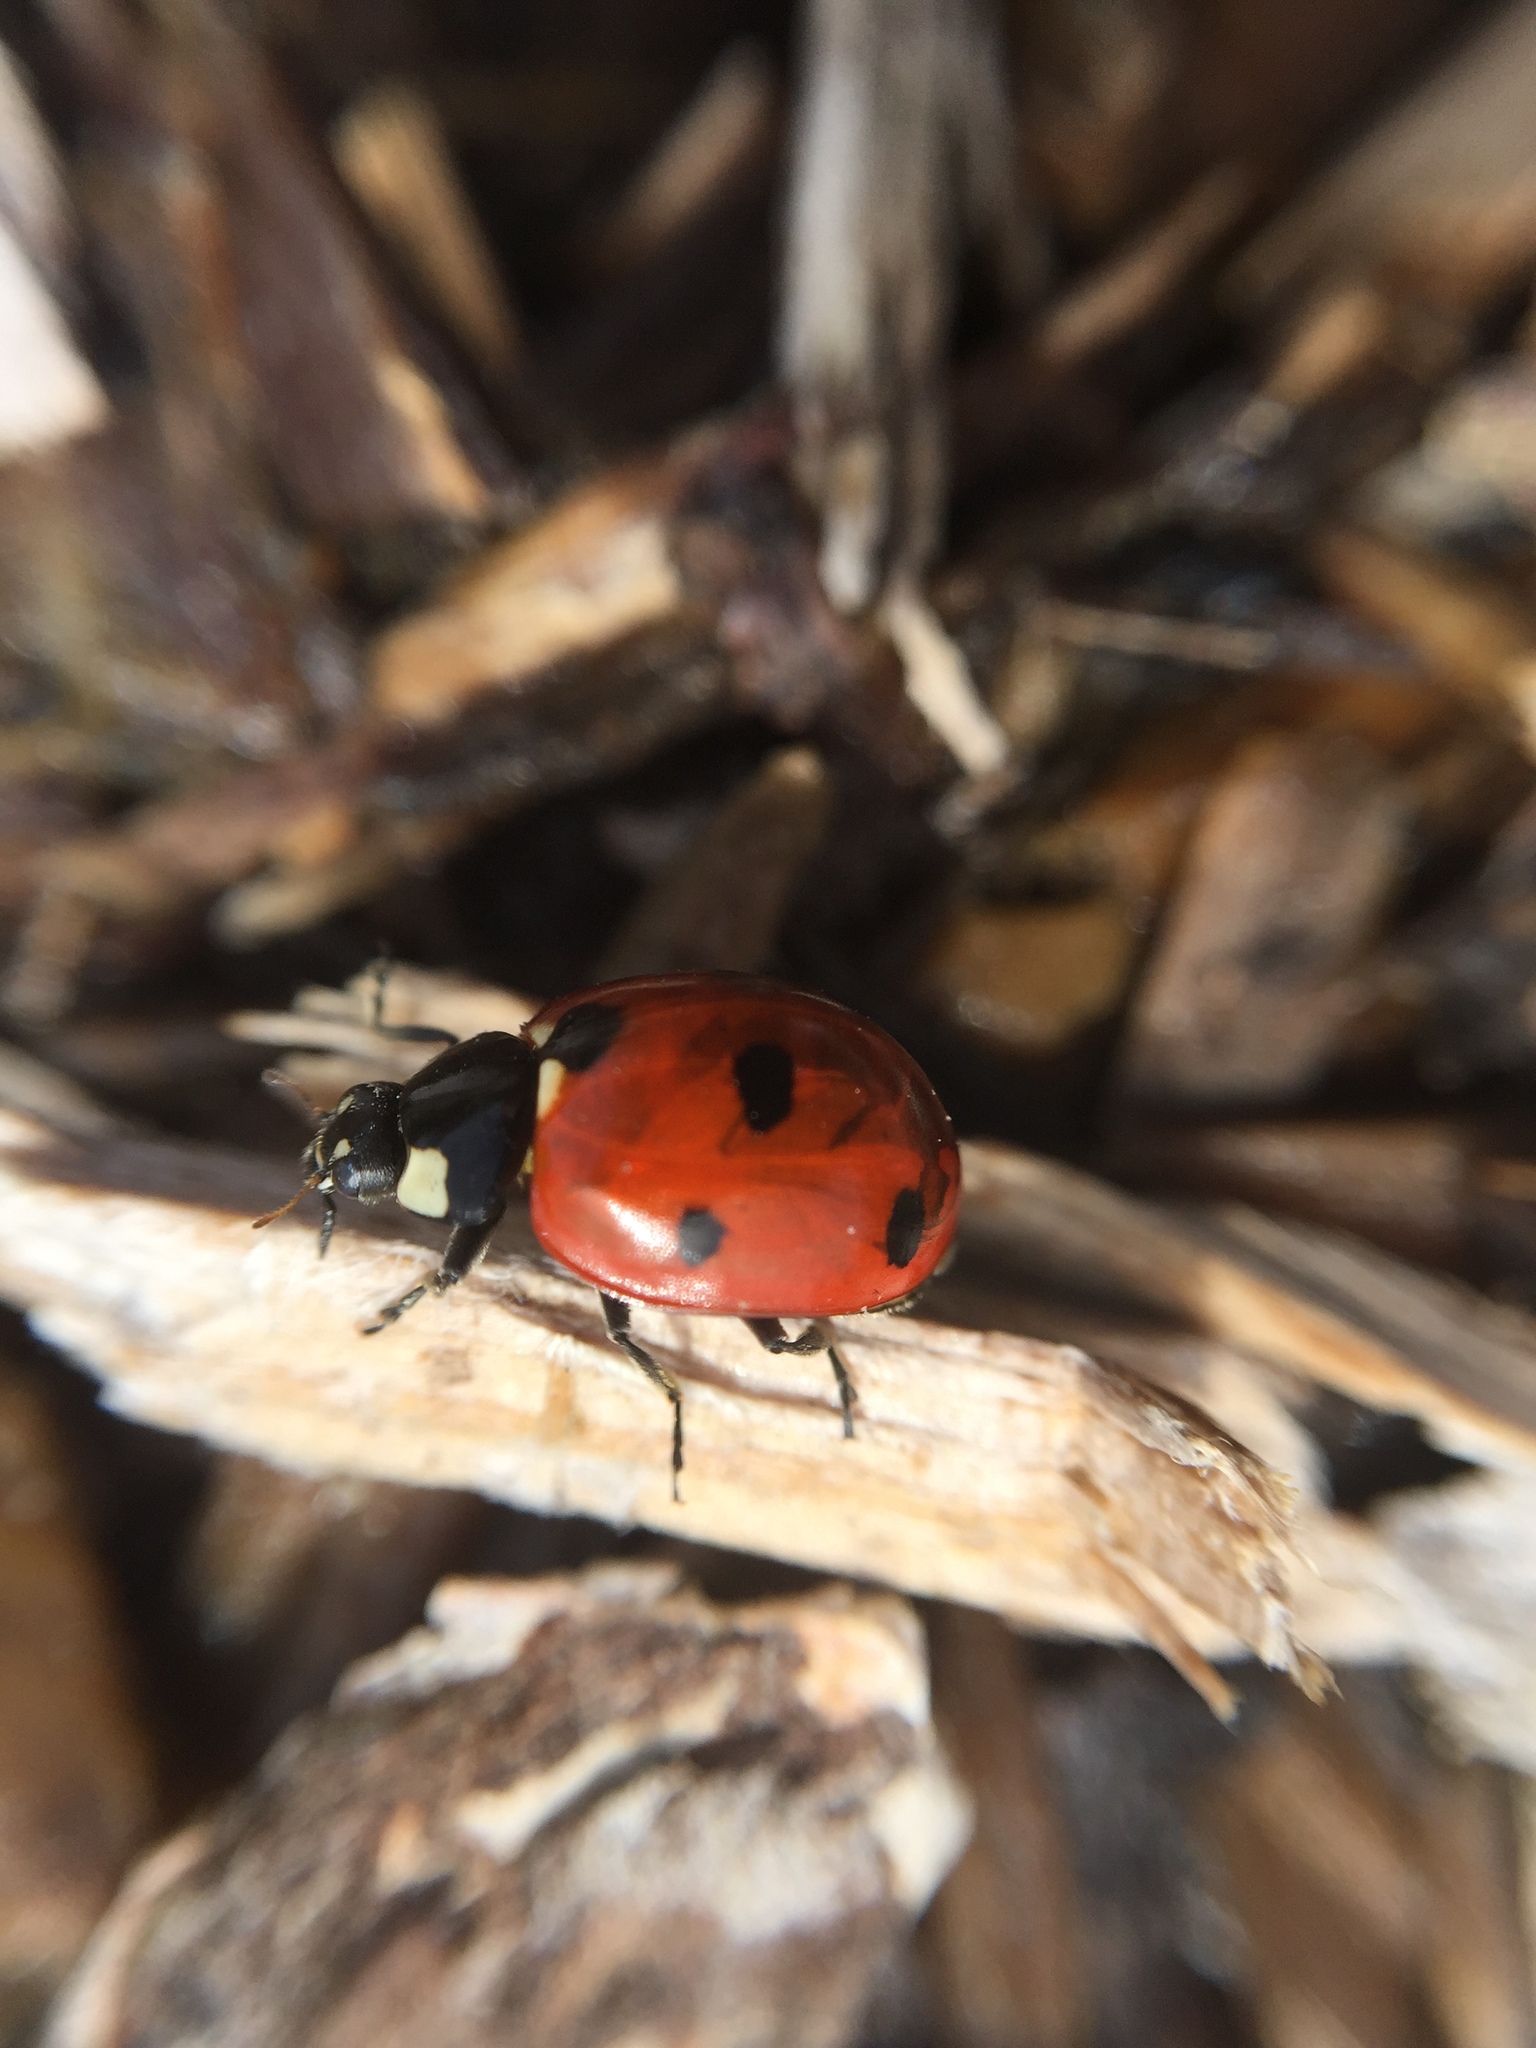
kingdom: Animalia
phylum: Arthropoda
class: Insecta
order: Coleoptera
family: Coccinellidae
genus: Coccinella
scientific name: Coccinella septempunctata
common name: Sevenspotted lady beetle
